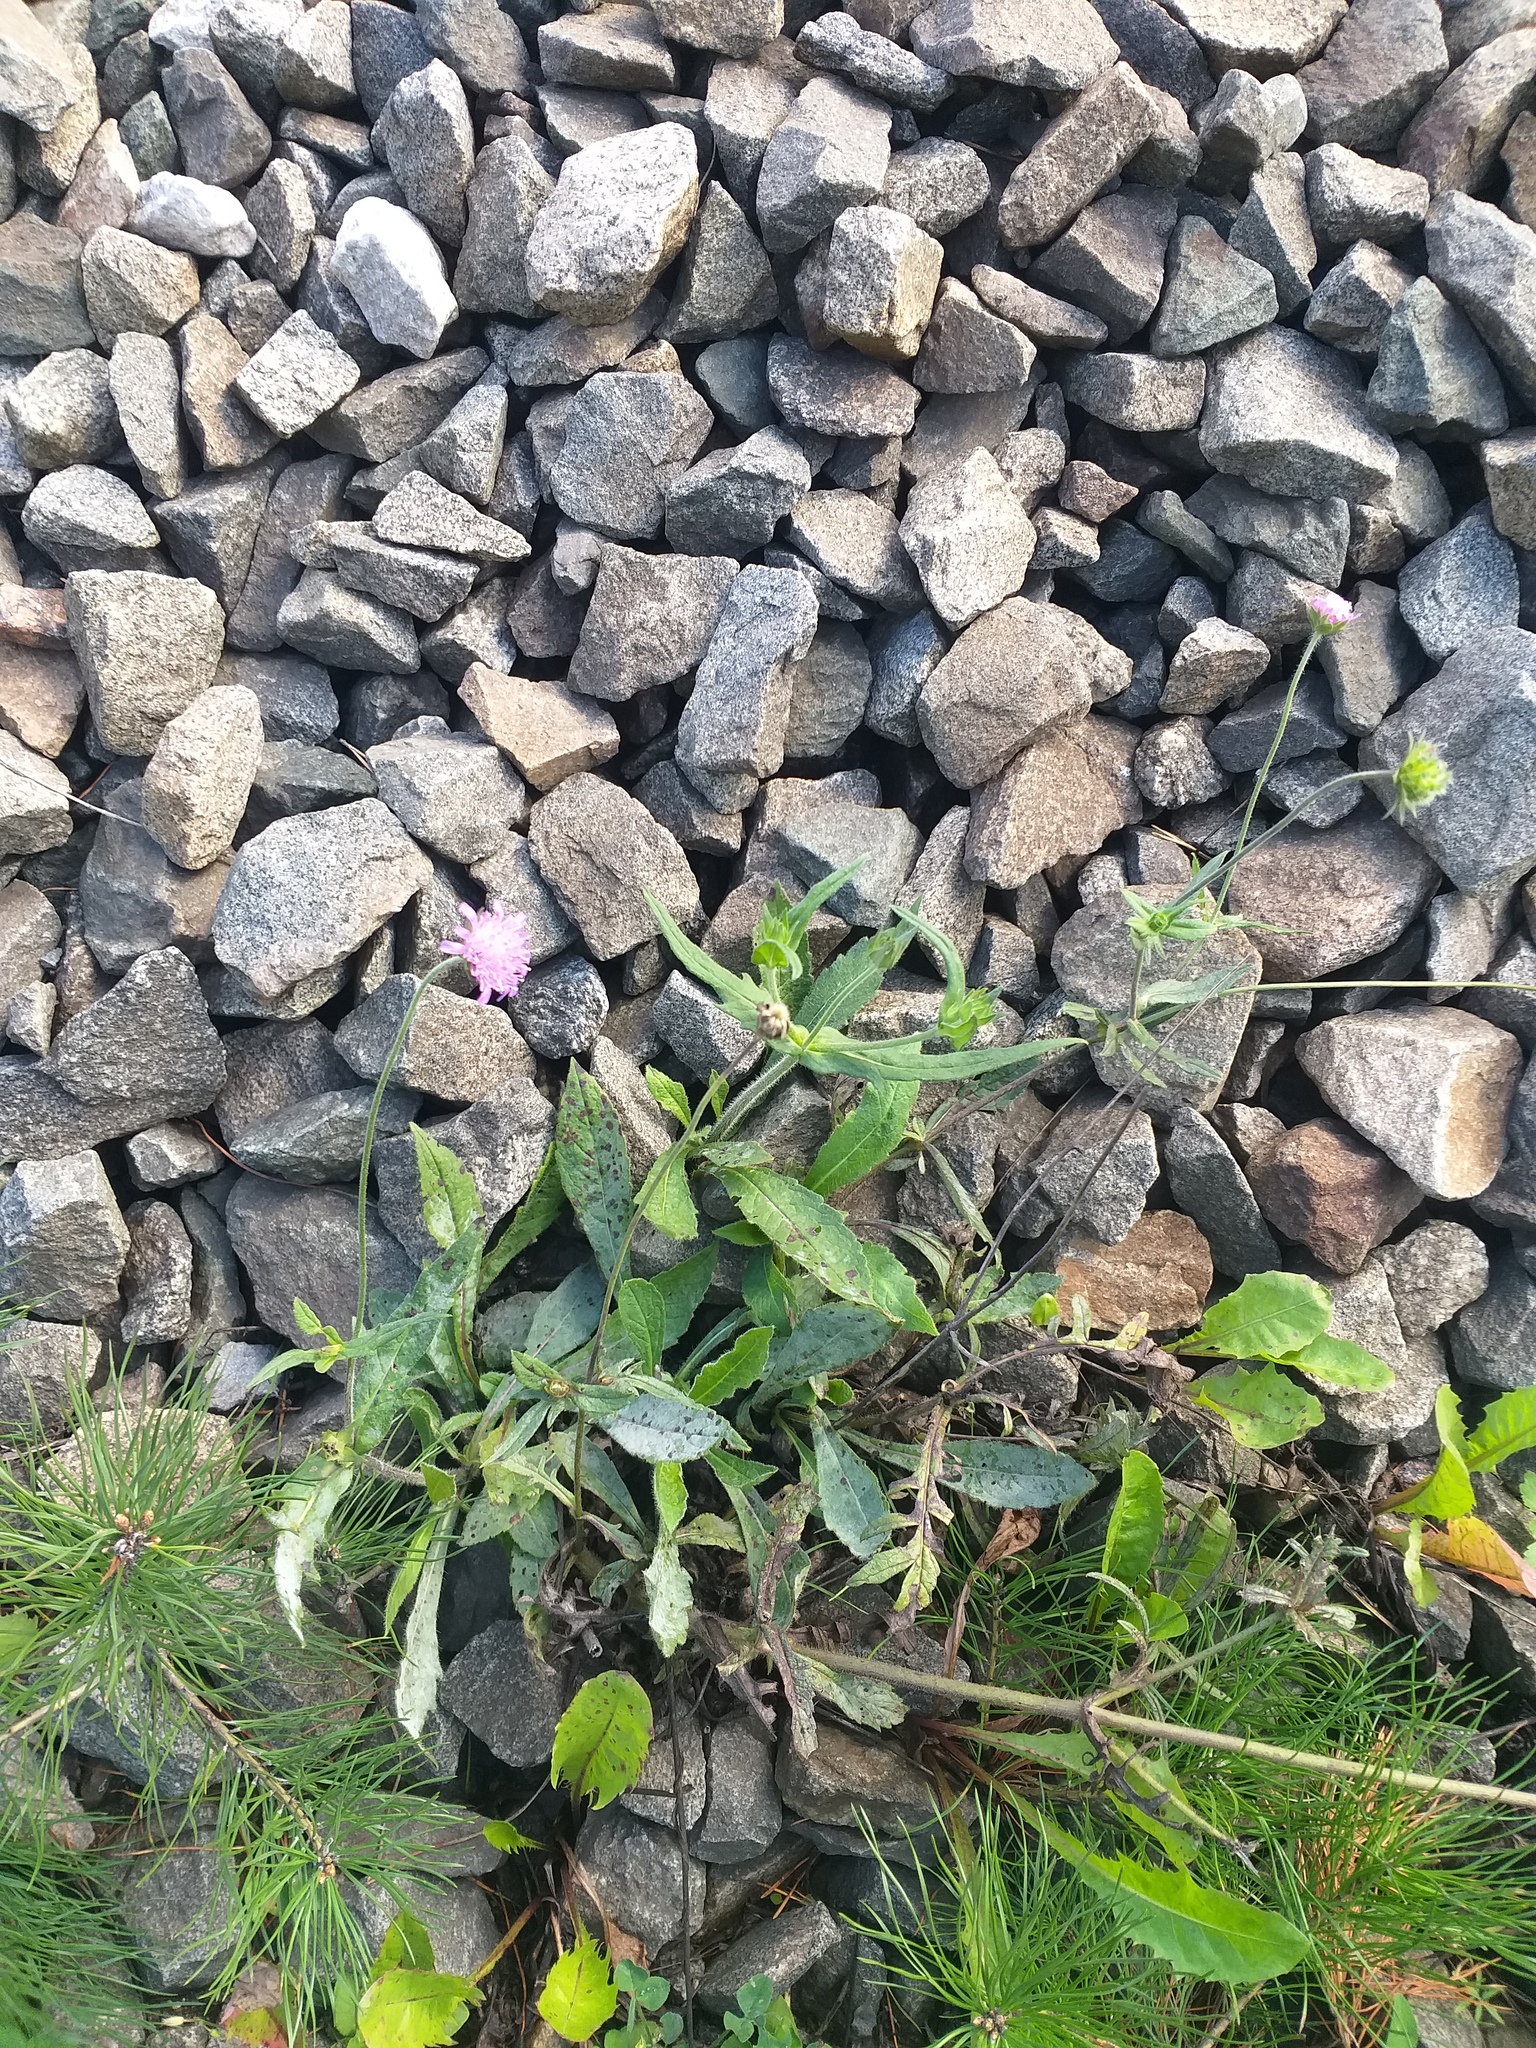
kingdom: Plantae
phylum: Tracheophyta
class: Magnoliopsida
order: Dipsacales
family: Caprifoliaceae
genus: Knautia
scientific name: Knautia arvensis
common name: Field scabiosa
